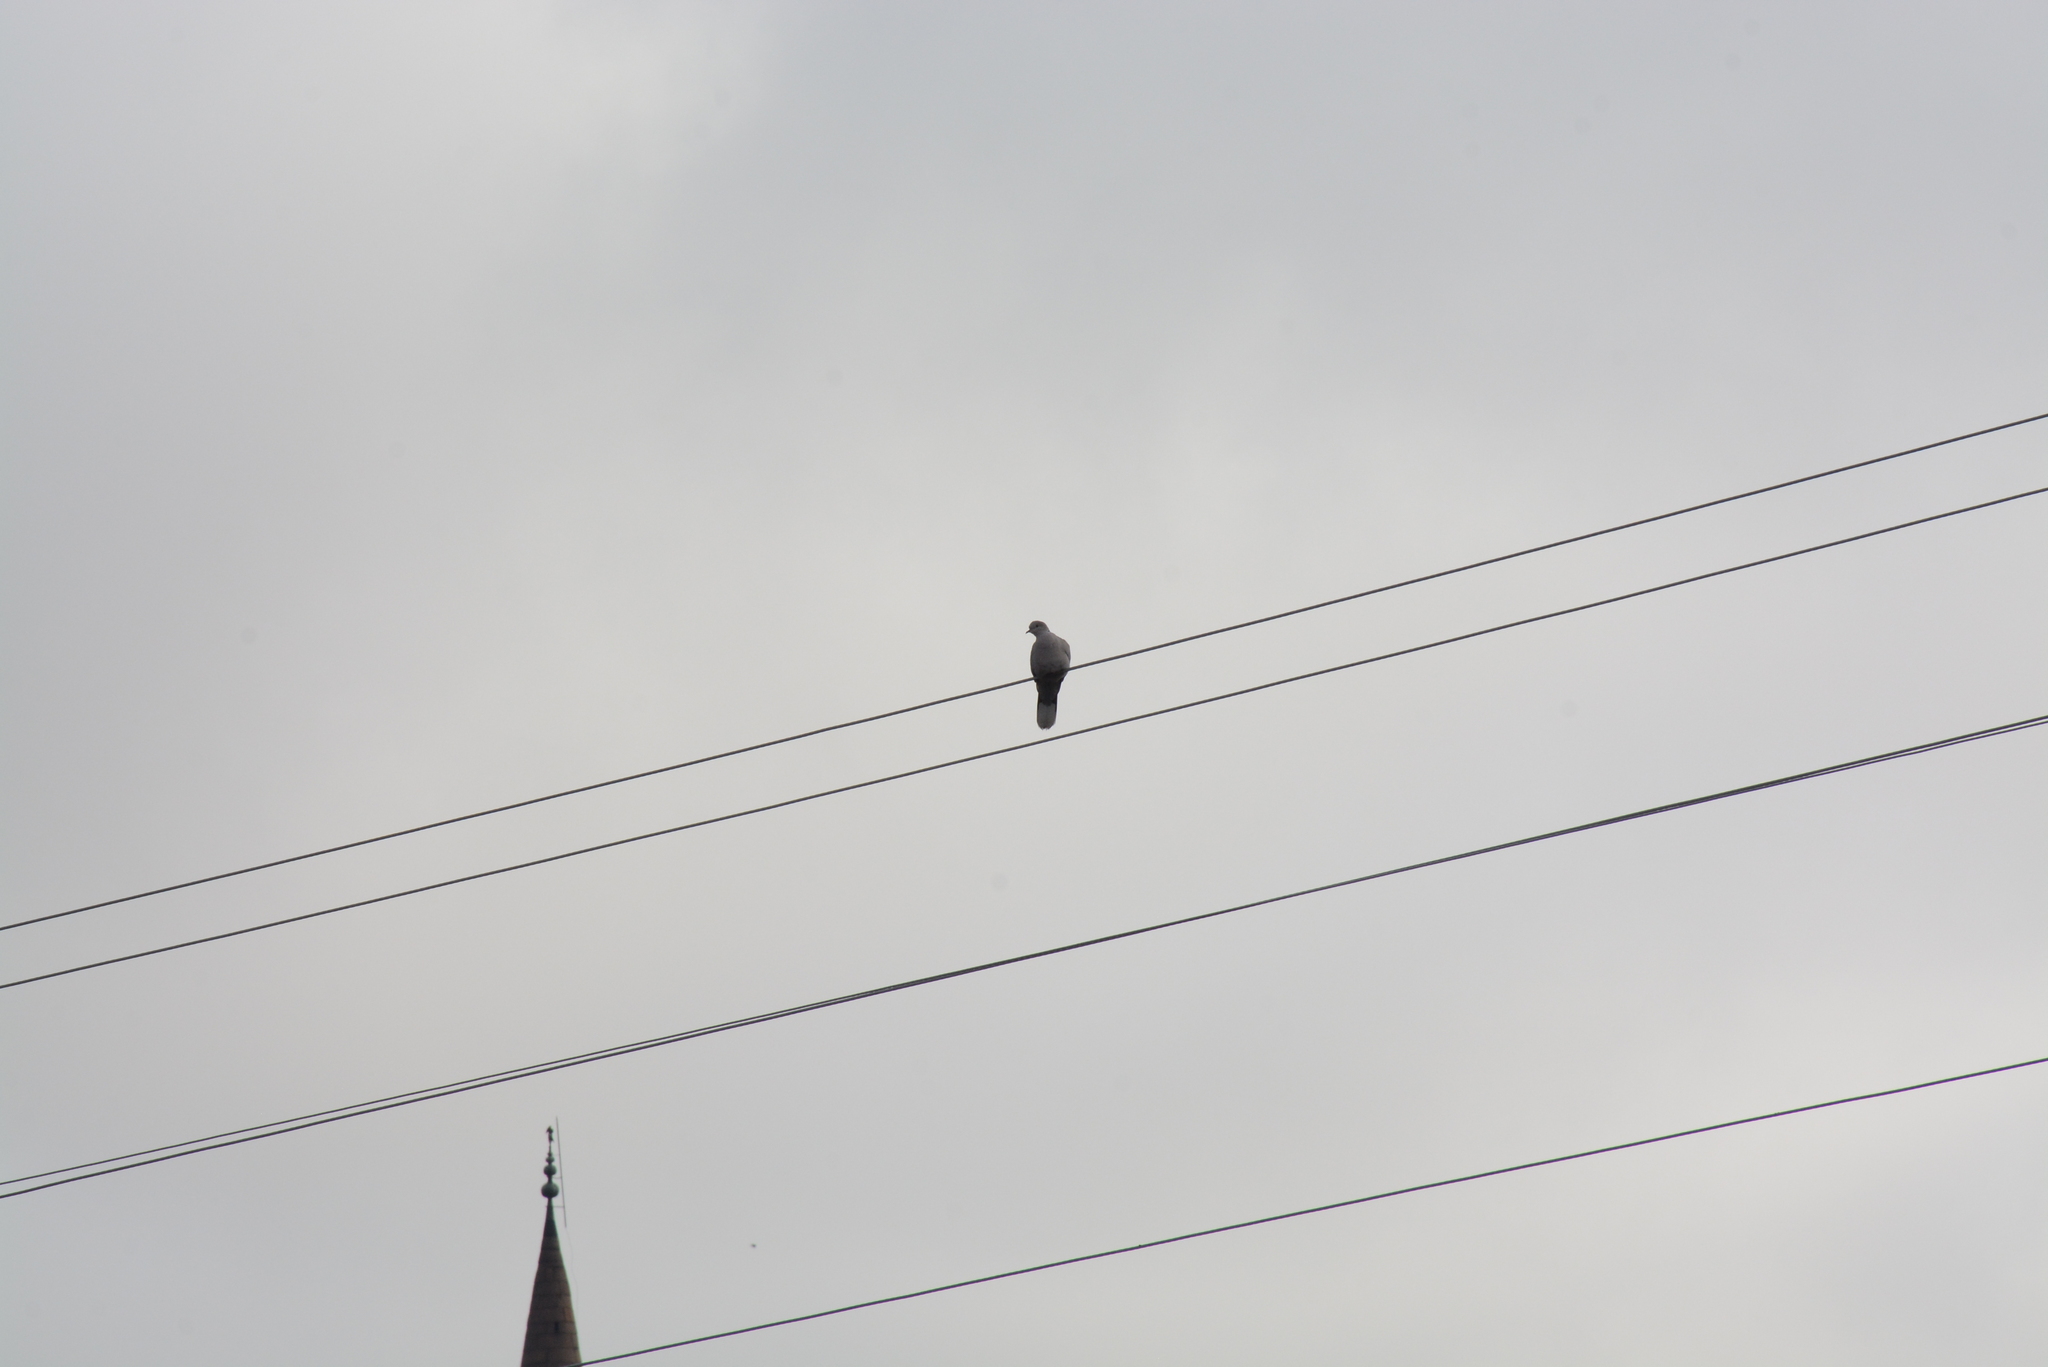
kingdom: Animalia
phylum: Chordata
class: Aves
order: Columbiformes
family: Columbidae
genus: Streptopelia
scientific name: Streptopelia decaocto
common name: Eurasian collared dove
